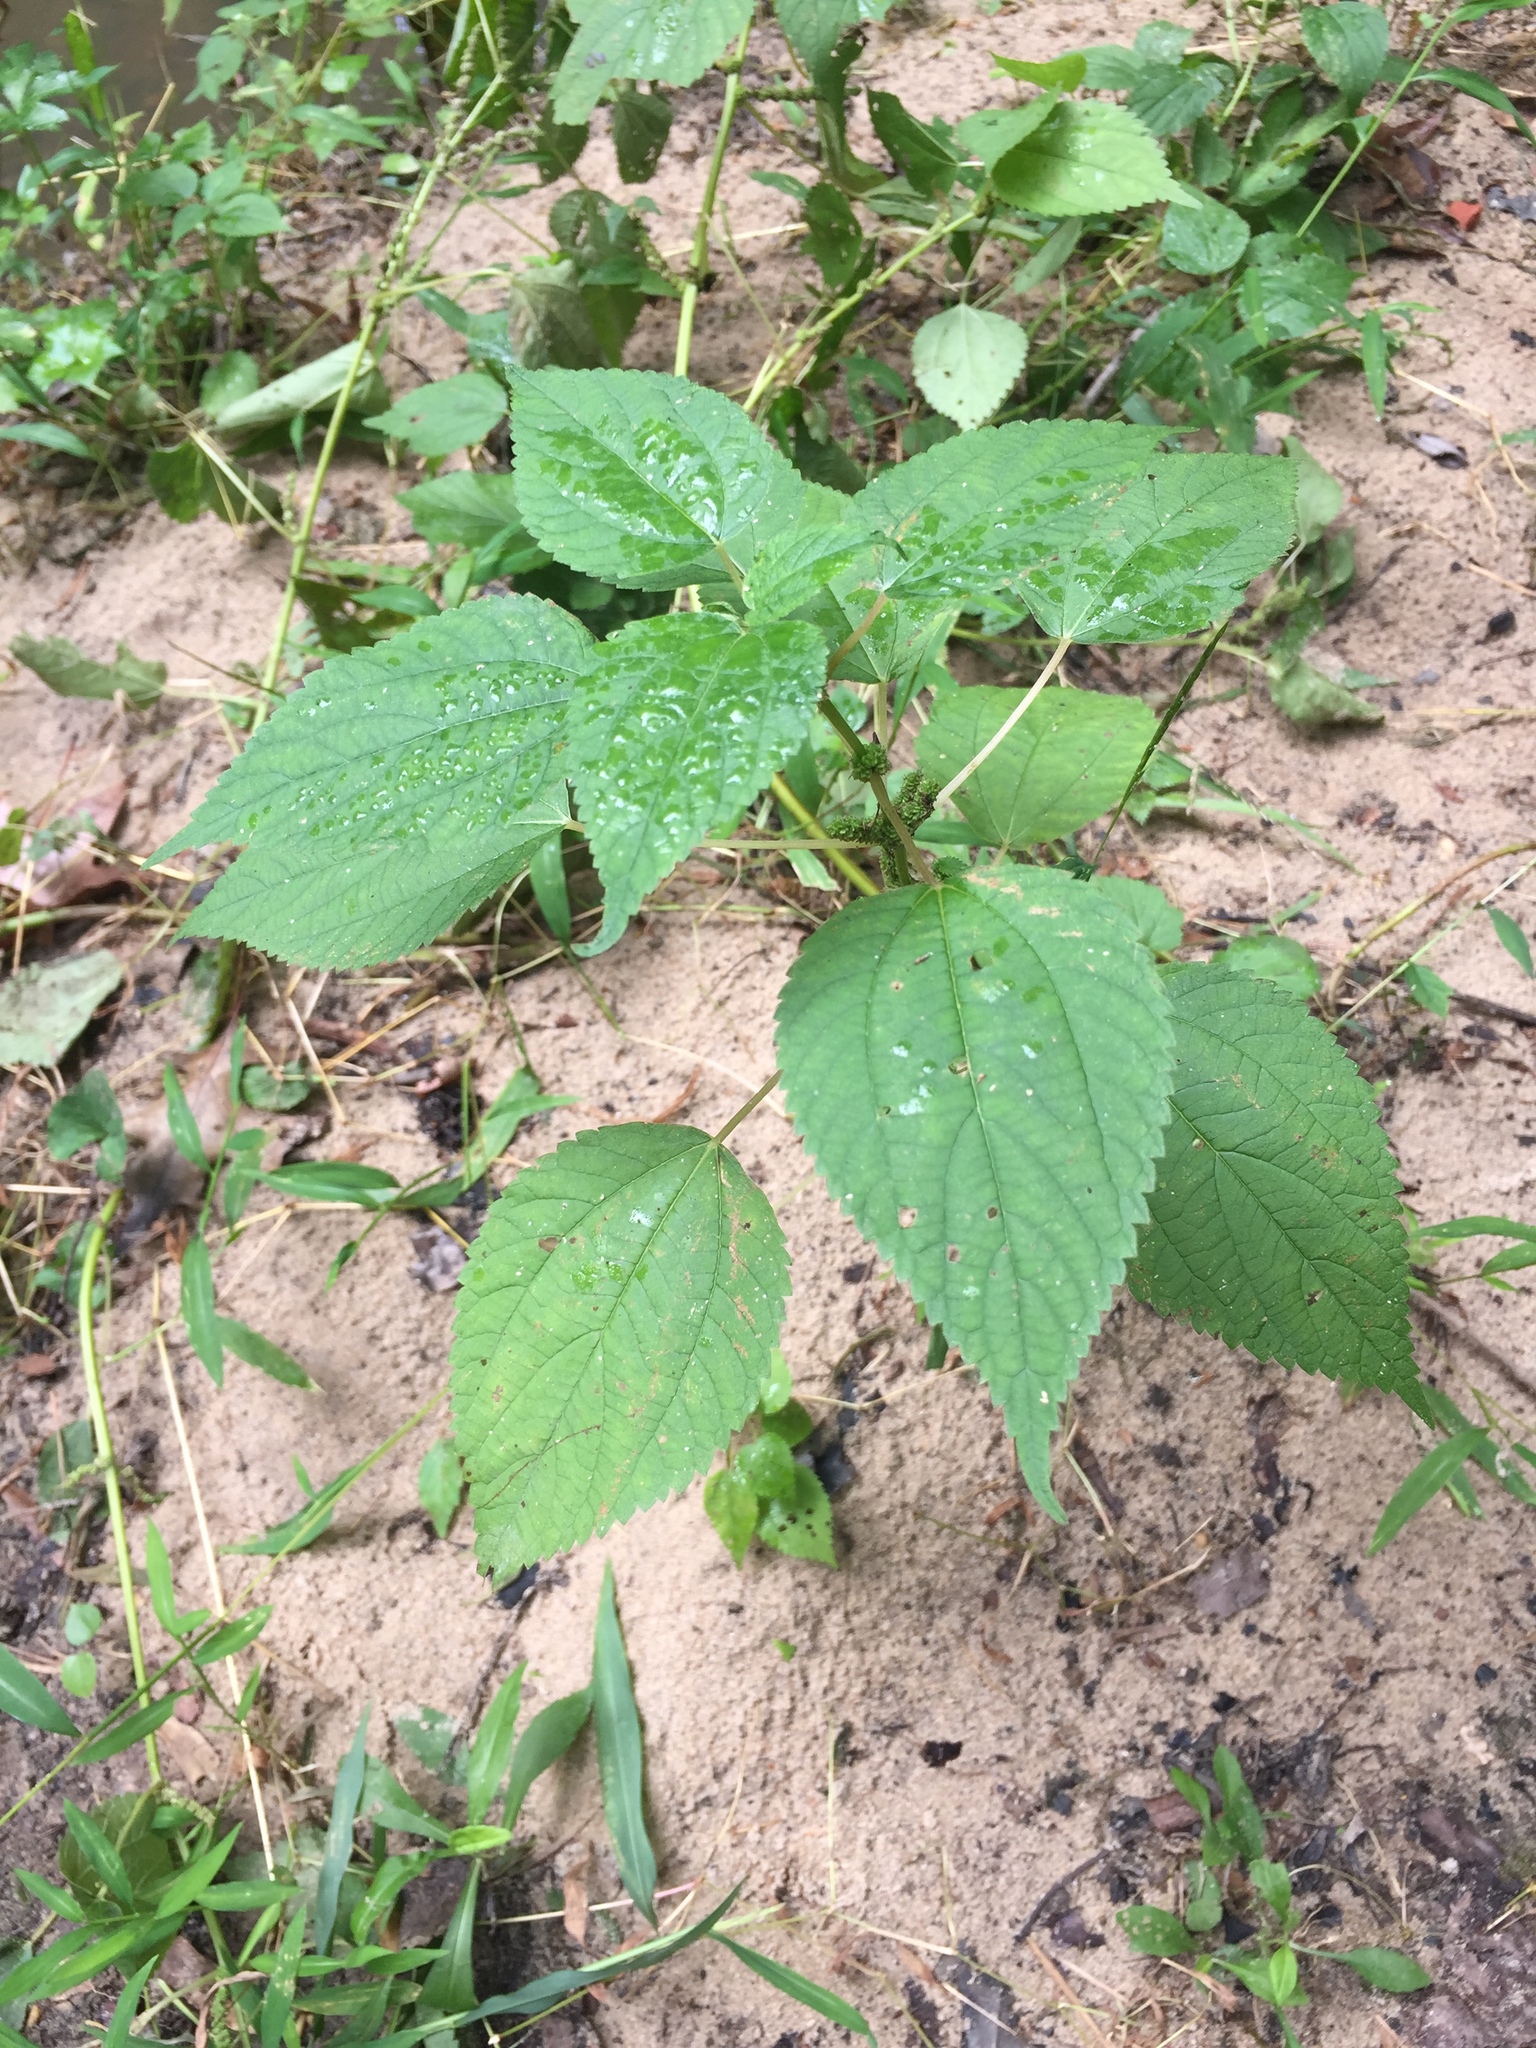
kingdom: Plantae
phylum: Tracheophyta
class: Magnoliopsida
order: Rosales
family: Urticaceae
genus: Boehmeria
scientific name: Boehmeria cylindrica
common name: Bog-hemp
